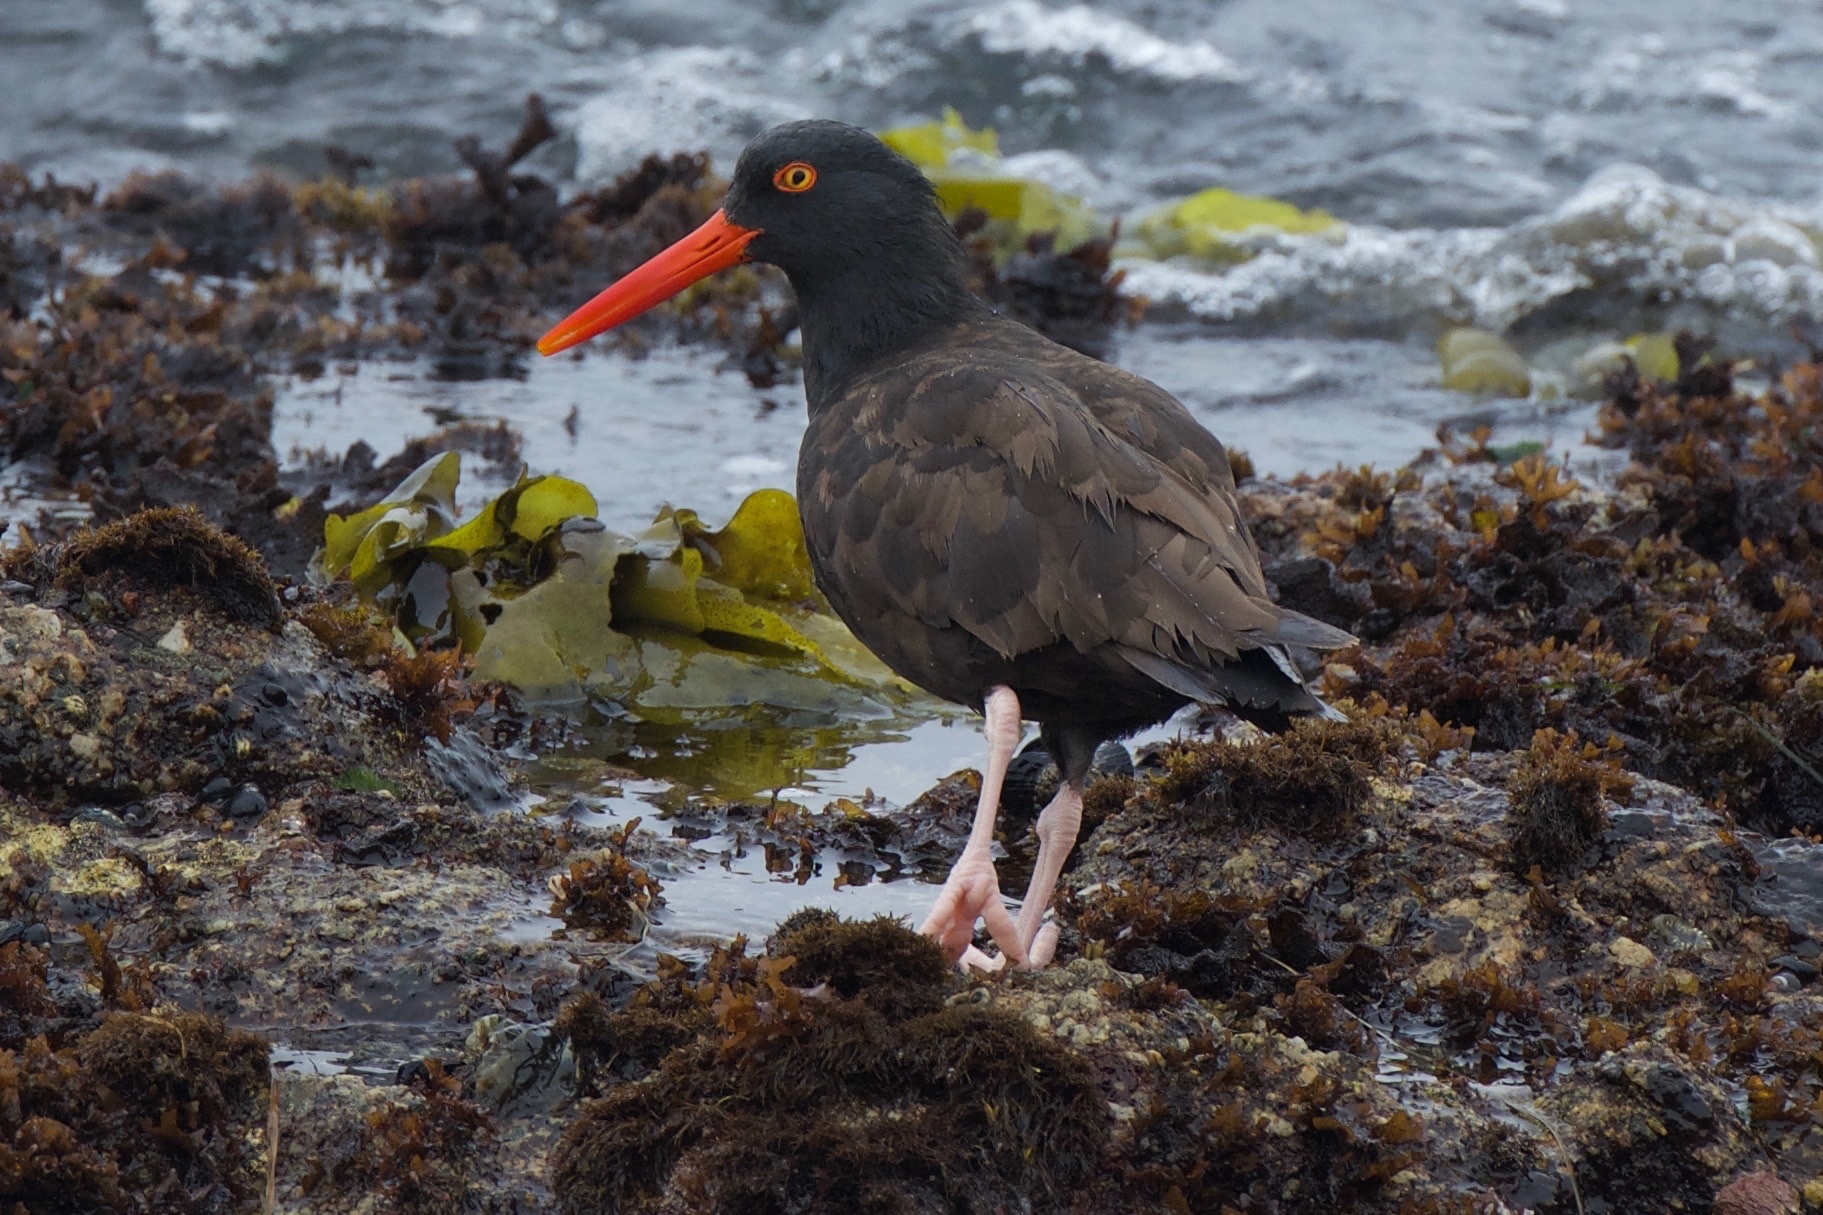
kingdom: Animalia
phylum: Chordata
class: Aves
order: Charadriiformes
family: Haematopodidae
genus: Haematopus
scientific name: Haematopus bachmani
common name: Black oystercatcher
